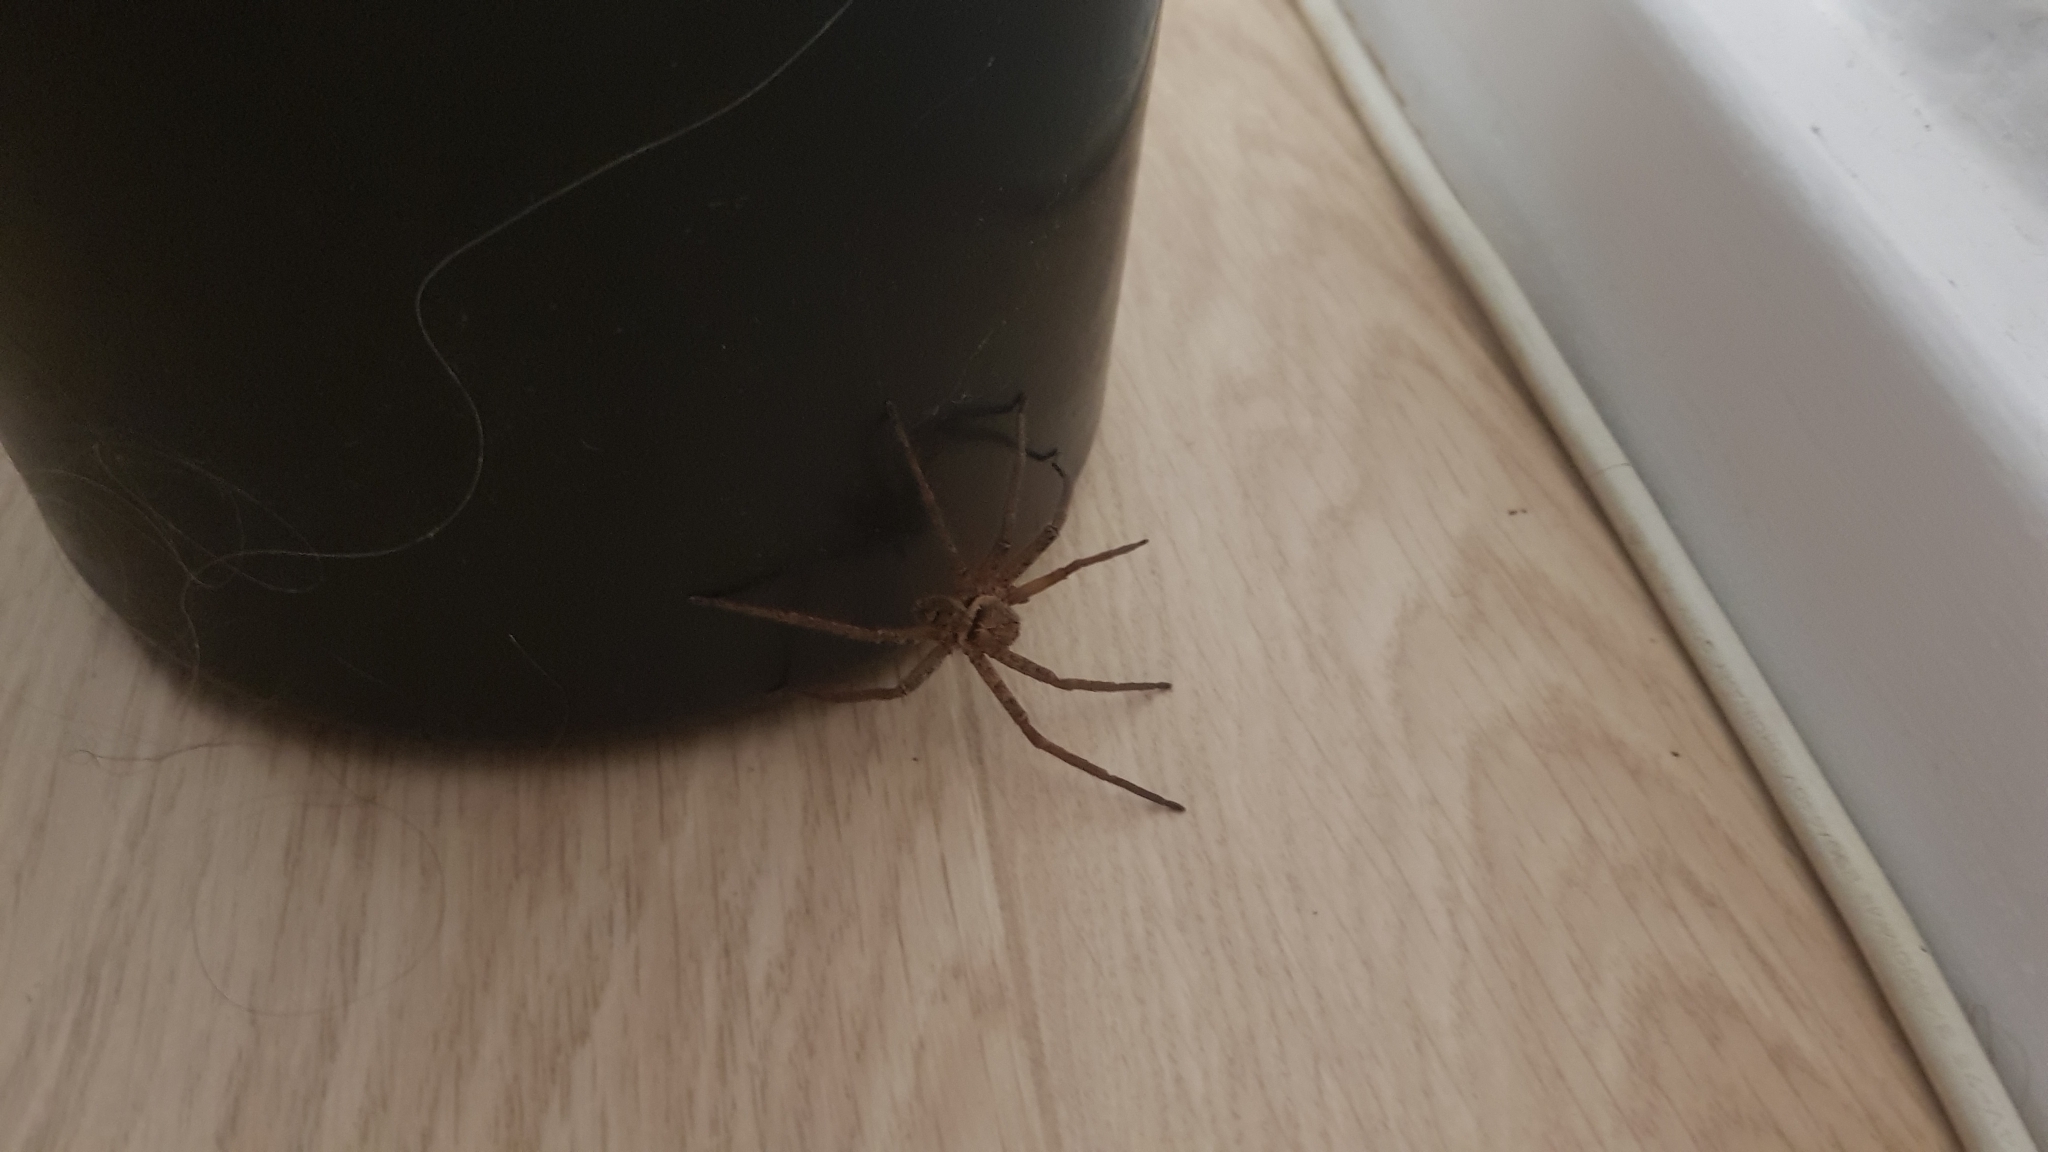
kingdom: Animalia
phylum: Arthropoda
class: Arachnida
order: Araneae
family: Sparassidae
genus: Heteropoda
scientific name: Heteropoda jugulans
